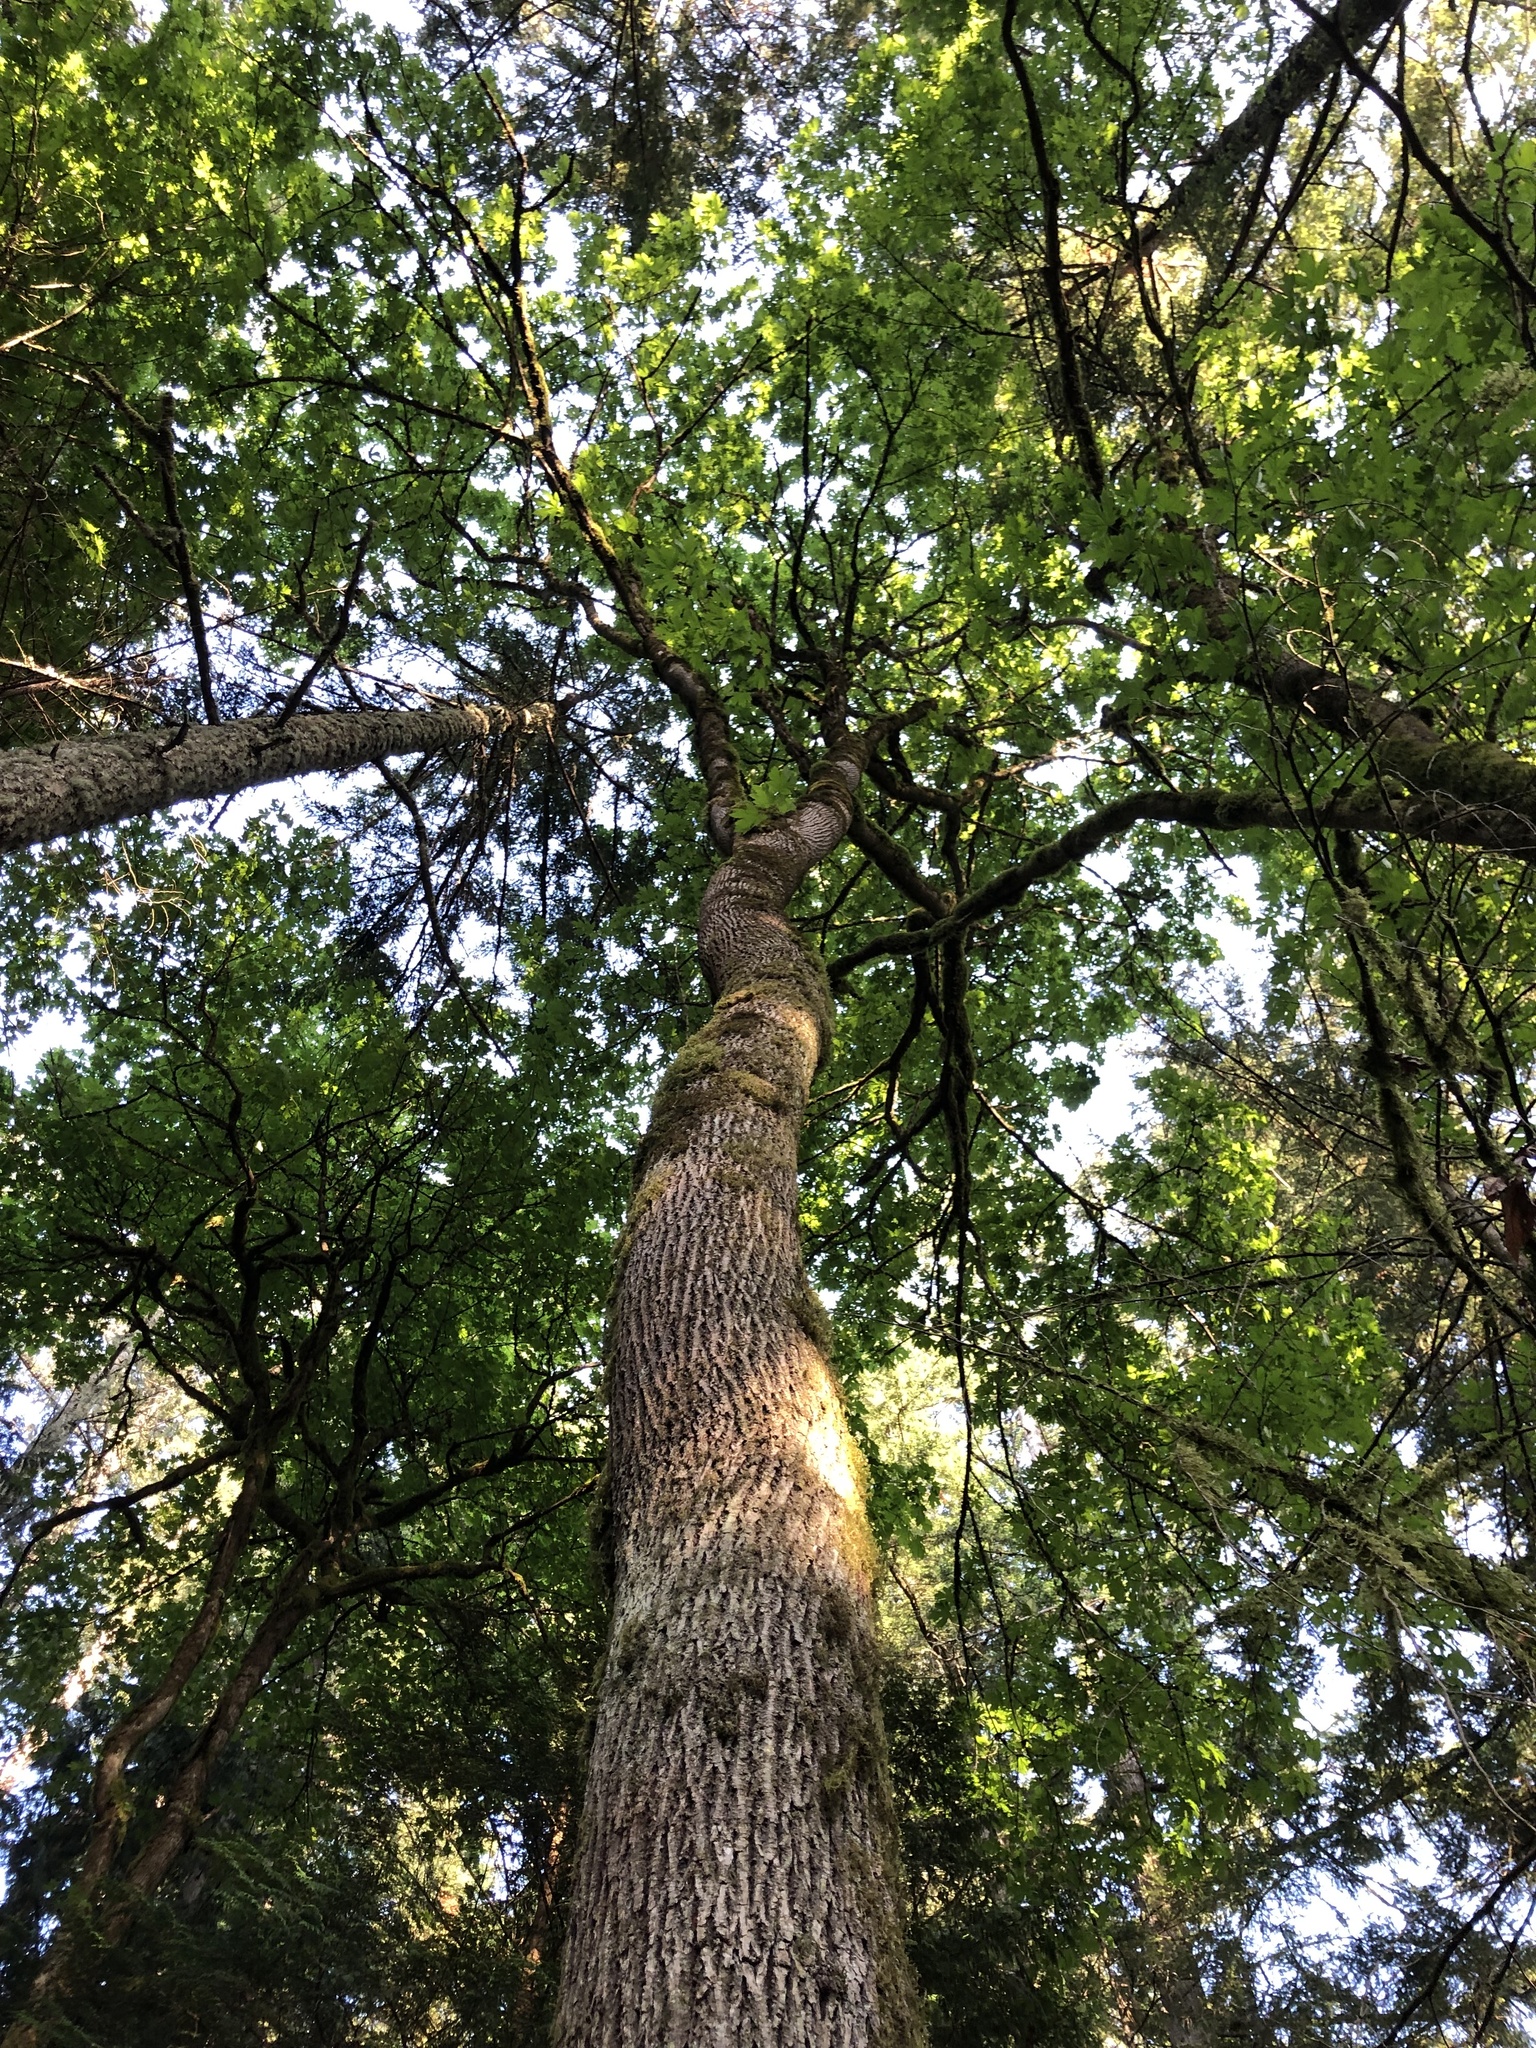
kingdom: Plantae
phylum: Tracheophyta
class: Magnoliopsida
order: Sapindales
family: Sapindaceae
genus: Acer
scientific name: Acer macrophyllum
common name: Oregon maple
